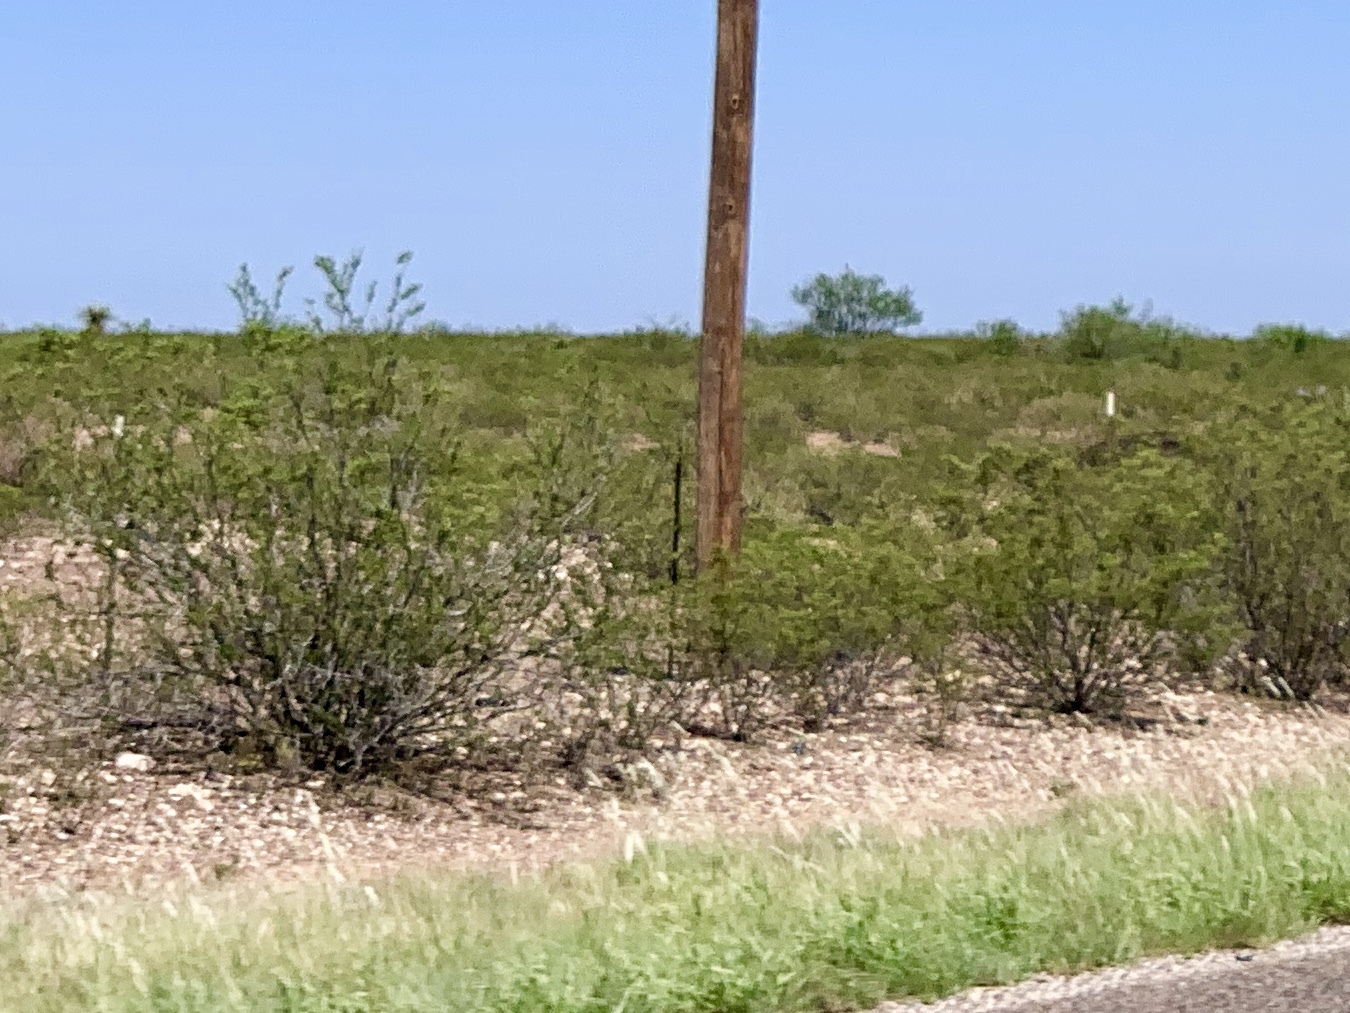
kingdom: Plantae
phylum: Tracheophyta
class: Magnoliopsida
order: Zygophyllales
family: Zygophyllaceae
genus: Larrea
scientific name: Larrea tridentata
